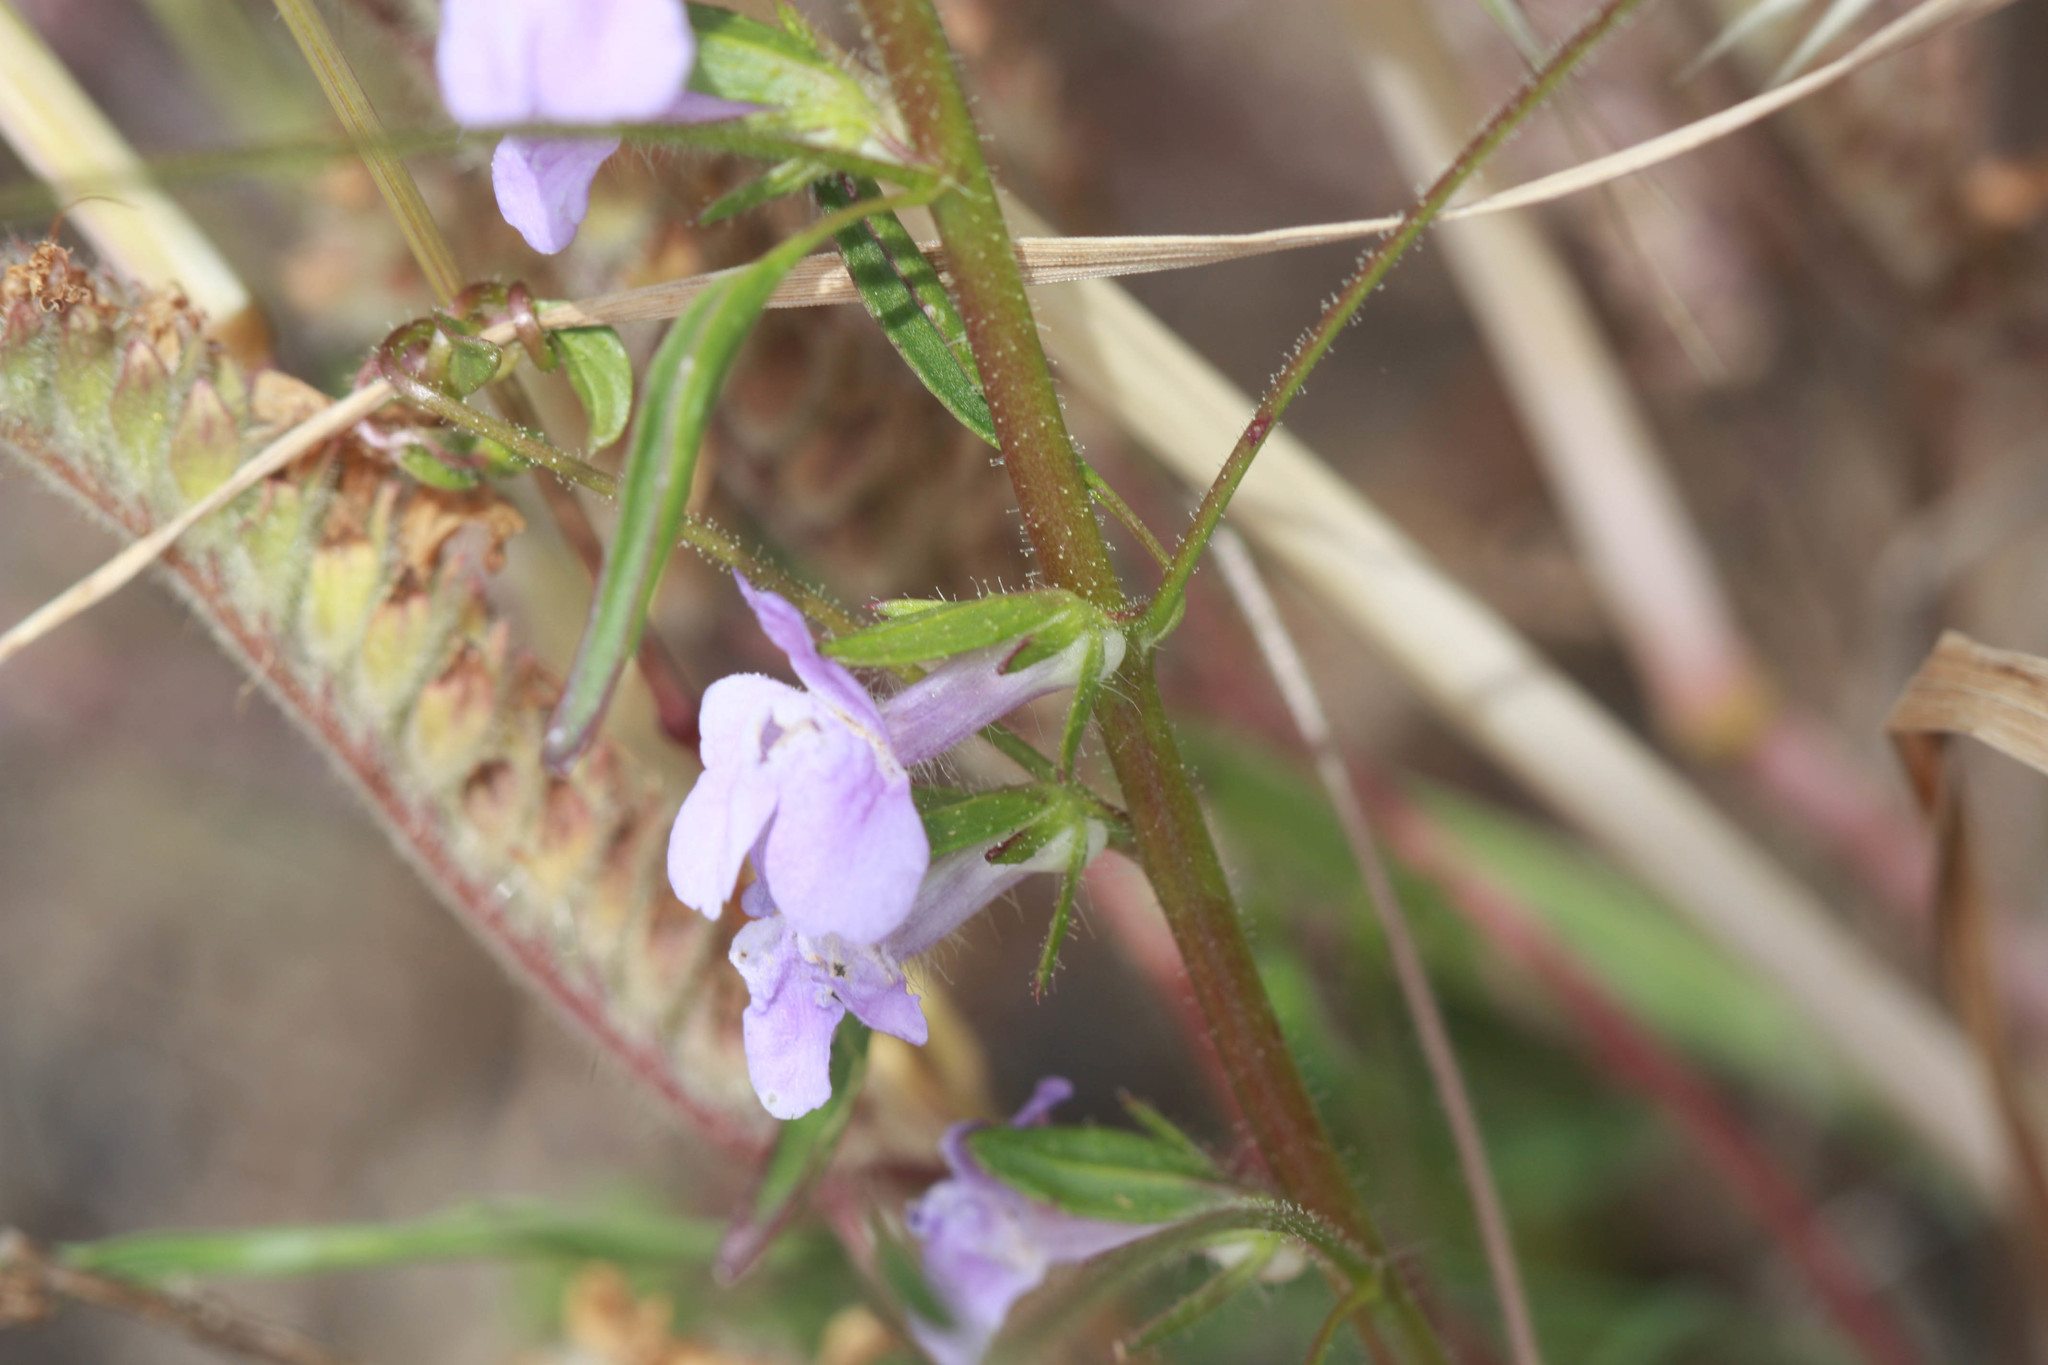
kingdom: Plantae
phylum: Tracheophyta
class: Magnoliopsida
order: Lamiales
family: Plantaginaceae
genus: Sairocarpus
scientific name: Sairocarpus vexillocalyculatus
